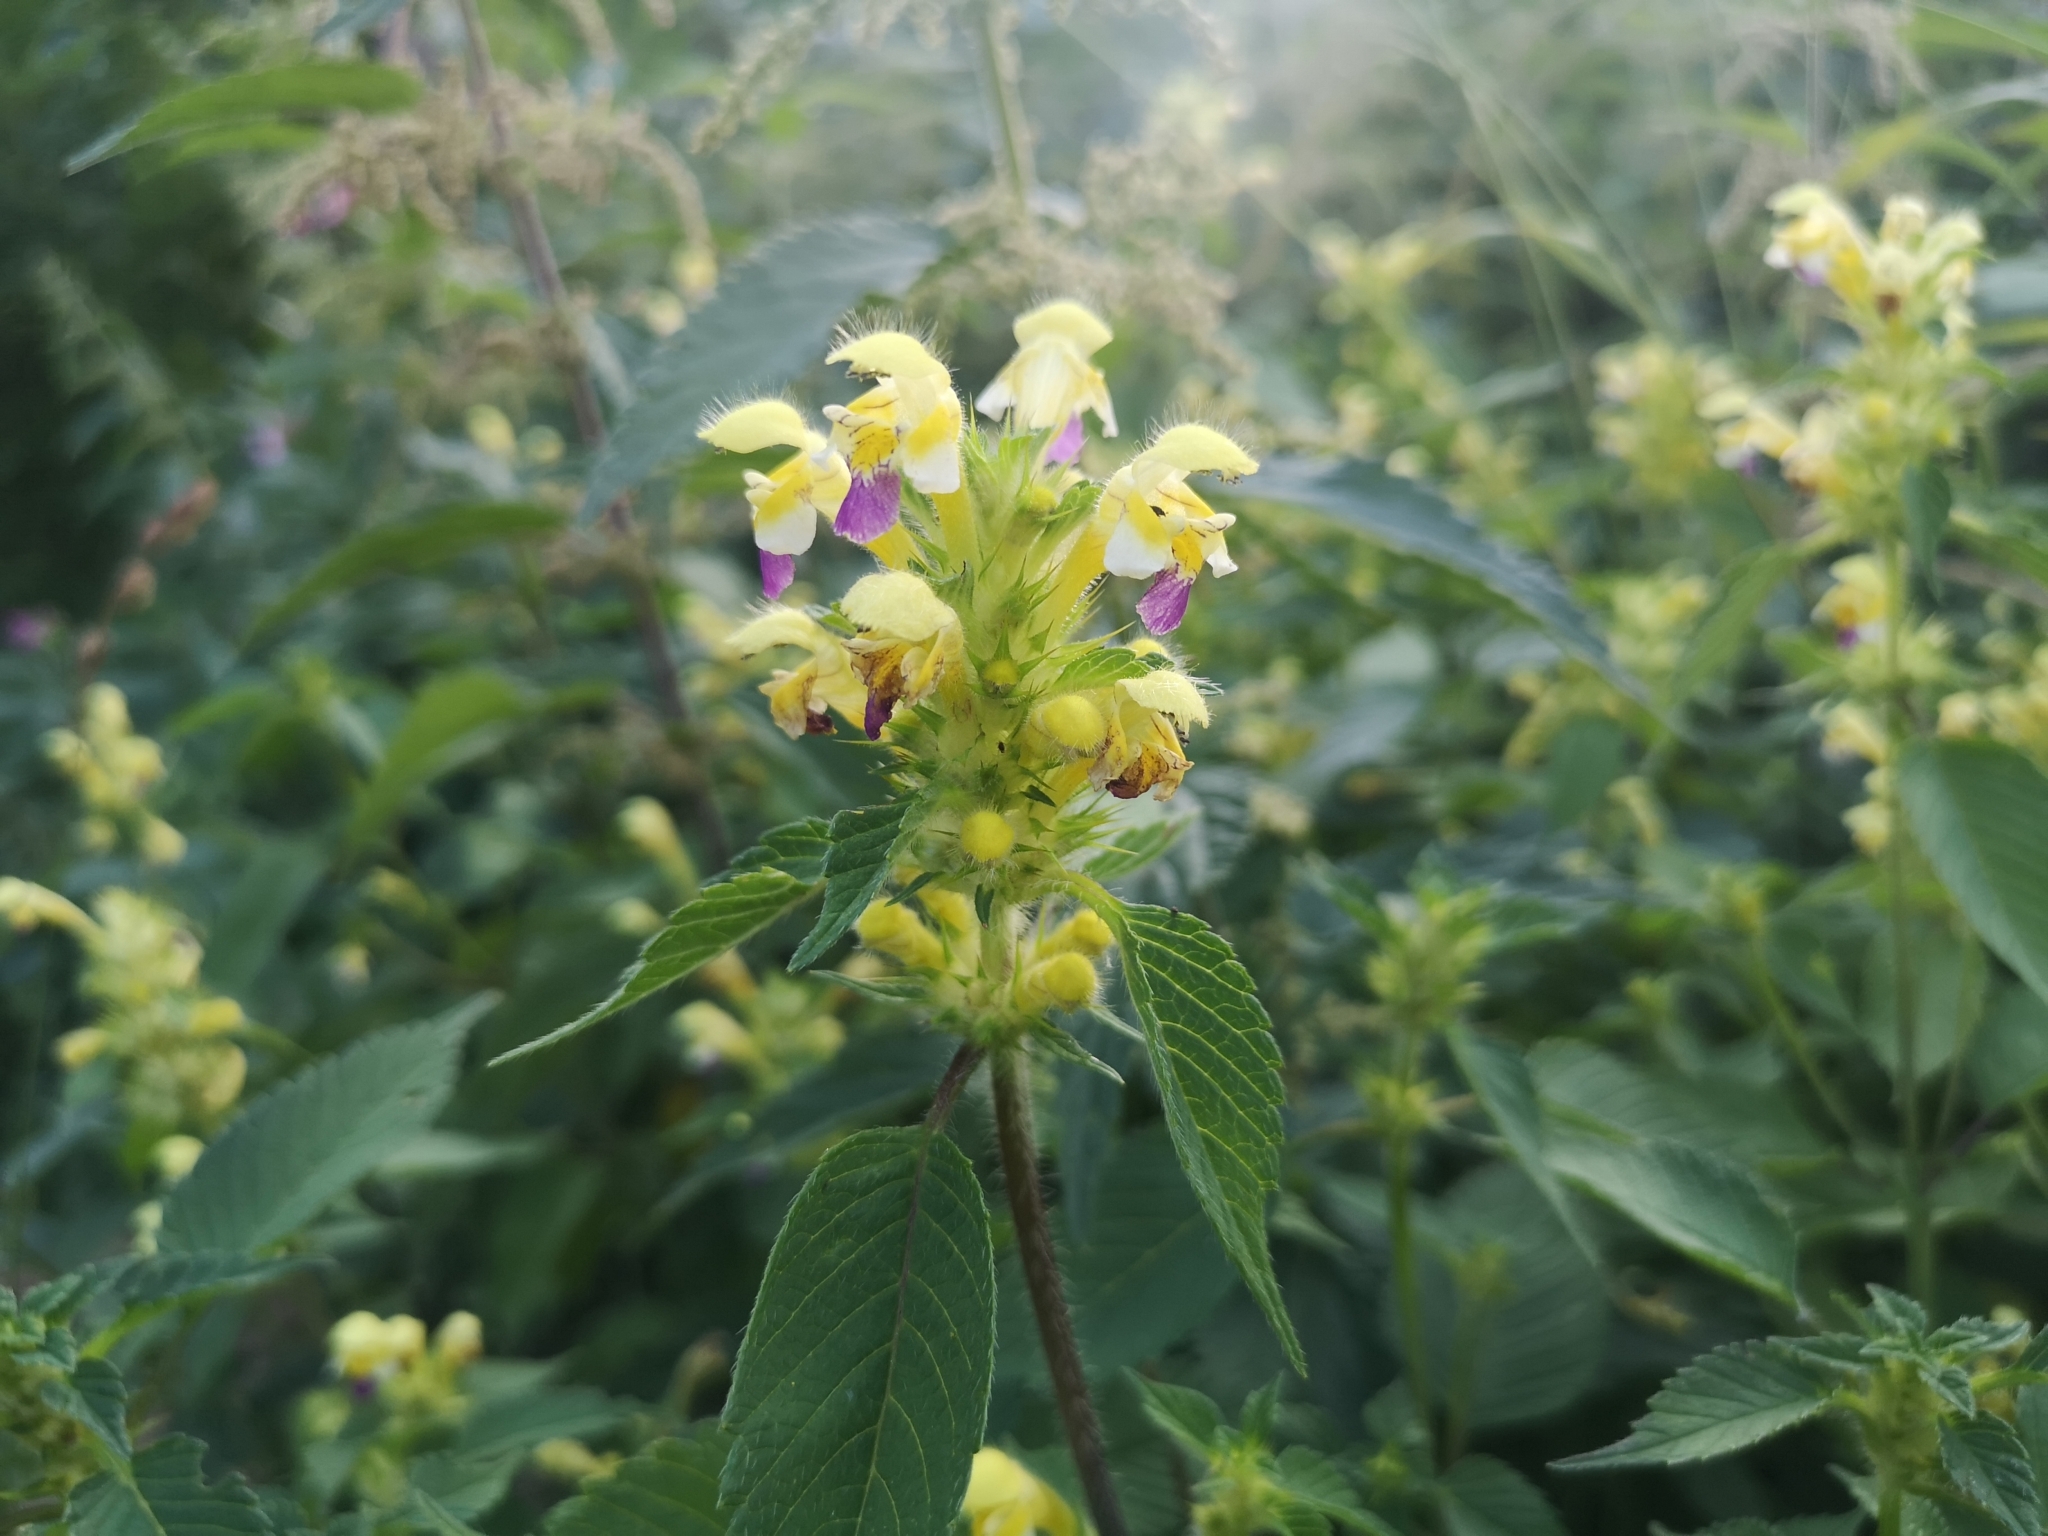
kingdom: Plantae
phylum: Tracheophyta
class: Magnoliopsida
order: Lamiales
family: Lamiaceae
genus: Galeopsis
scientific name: Galeopsis speciosa
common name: Large-flowered hemp-nettle
